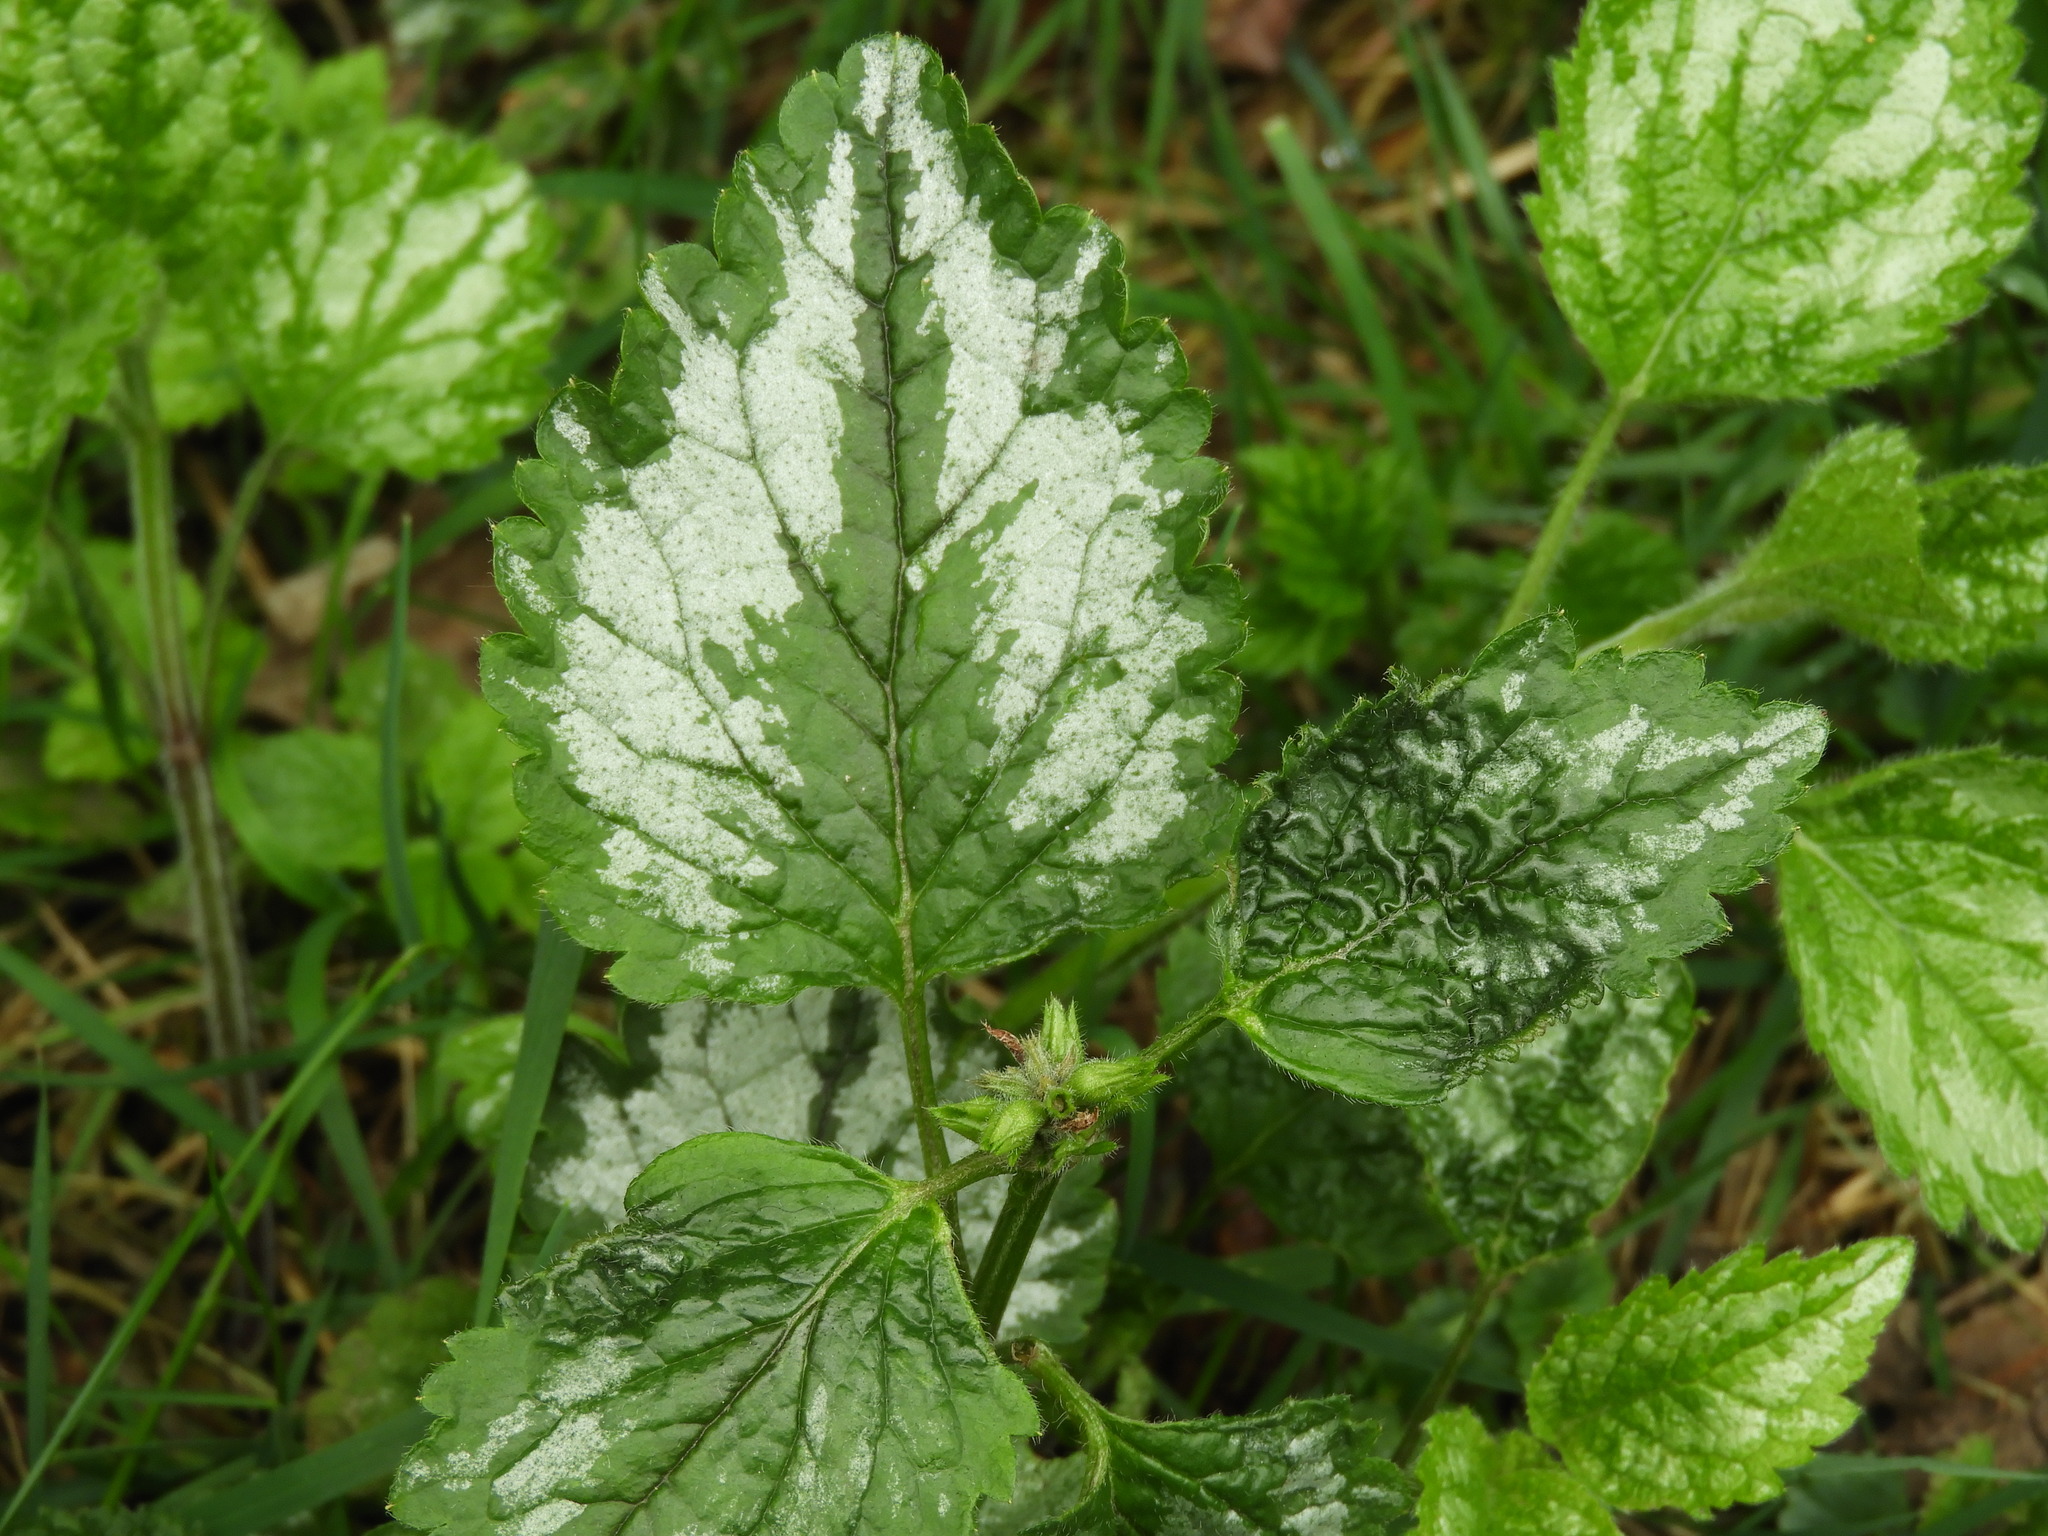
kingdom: Plantae
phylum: Tracheophyta
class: Magnoliopsida
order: Lamiales
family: Lamiaceae
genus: Lamium
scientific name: Lamium galeobdolon
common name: Yellow archangel
